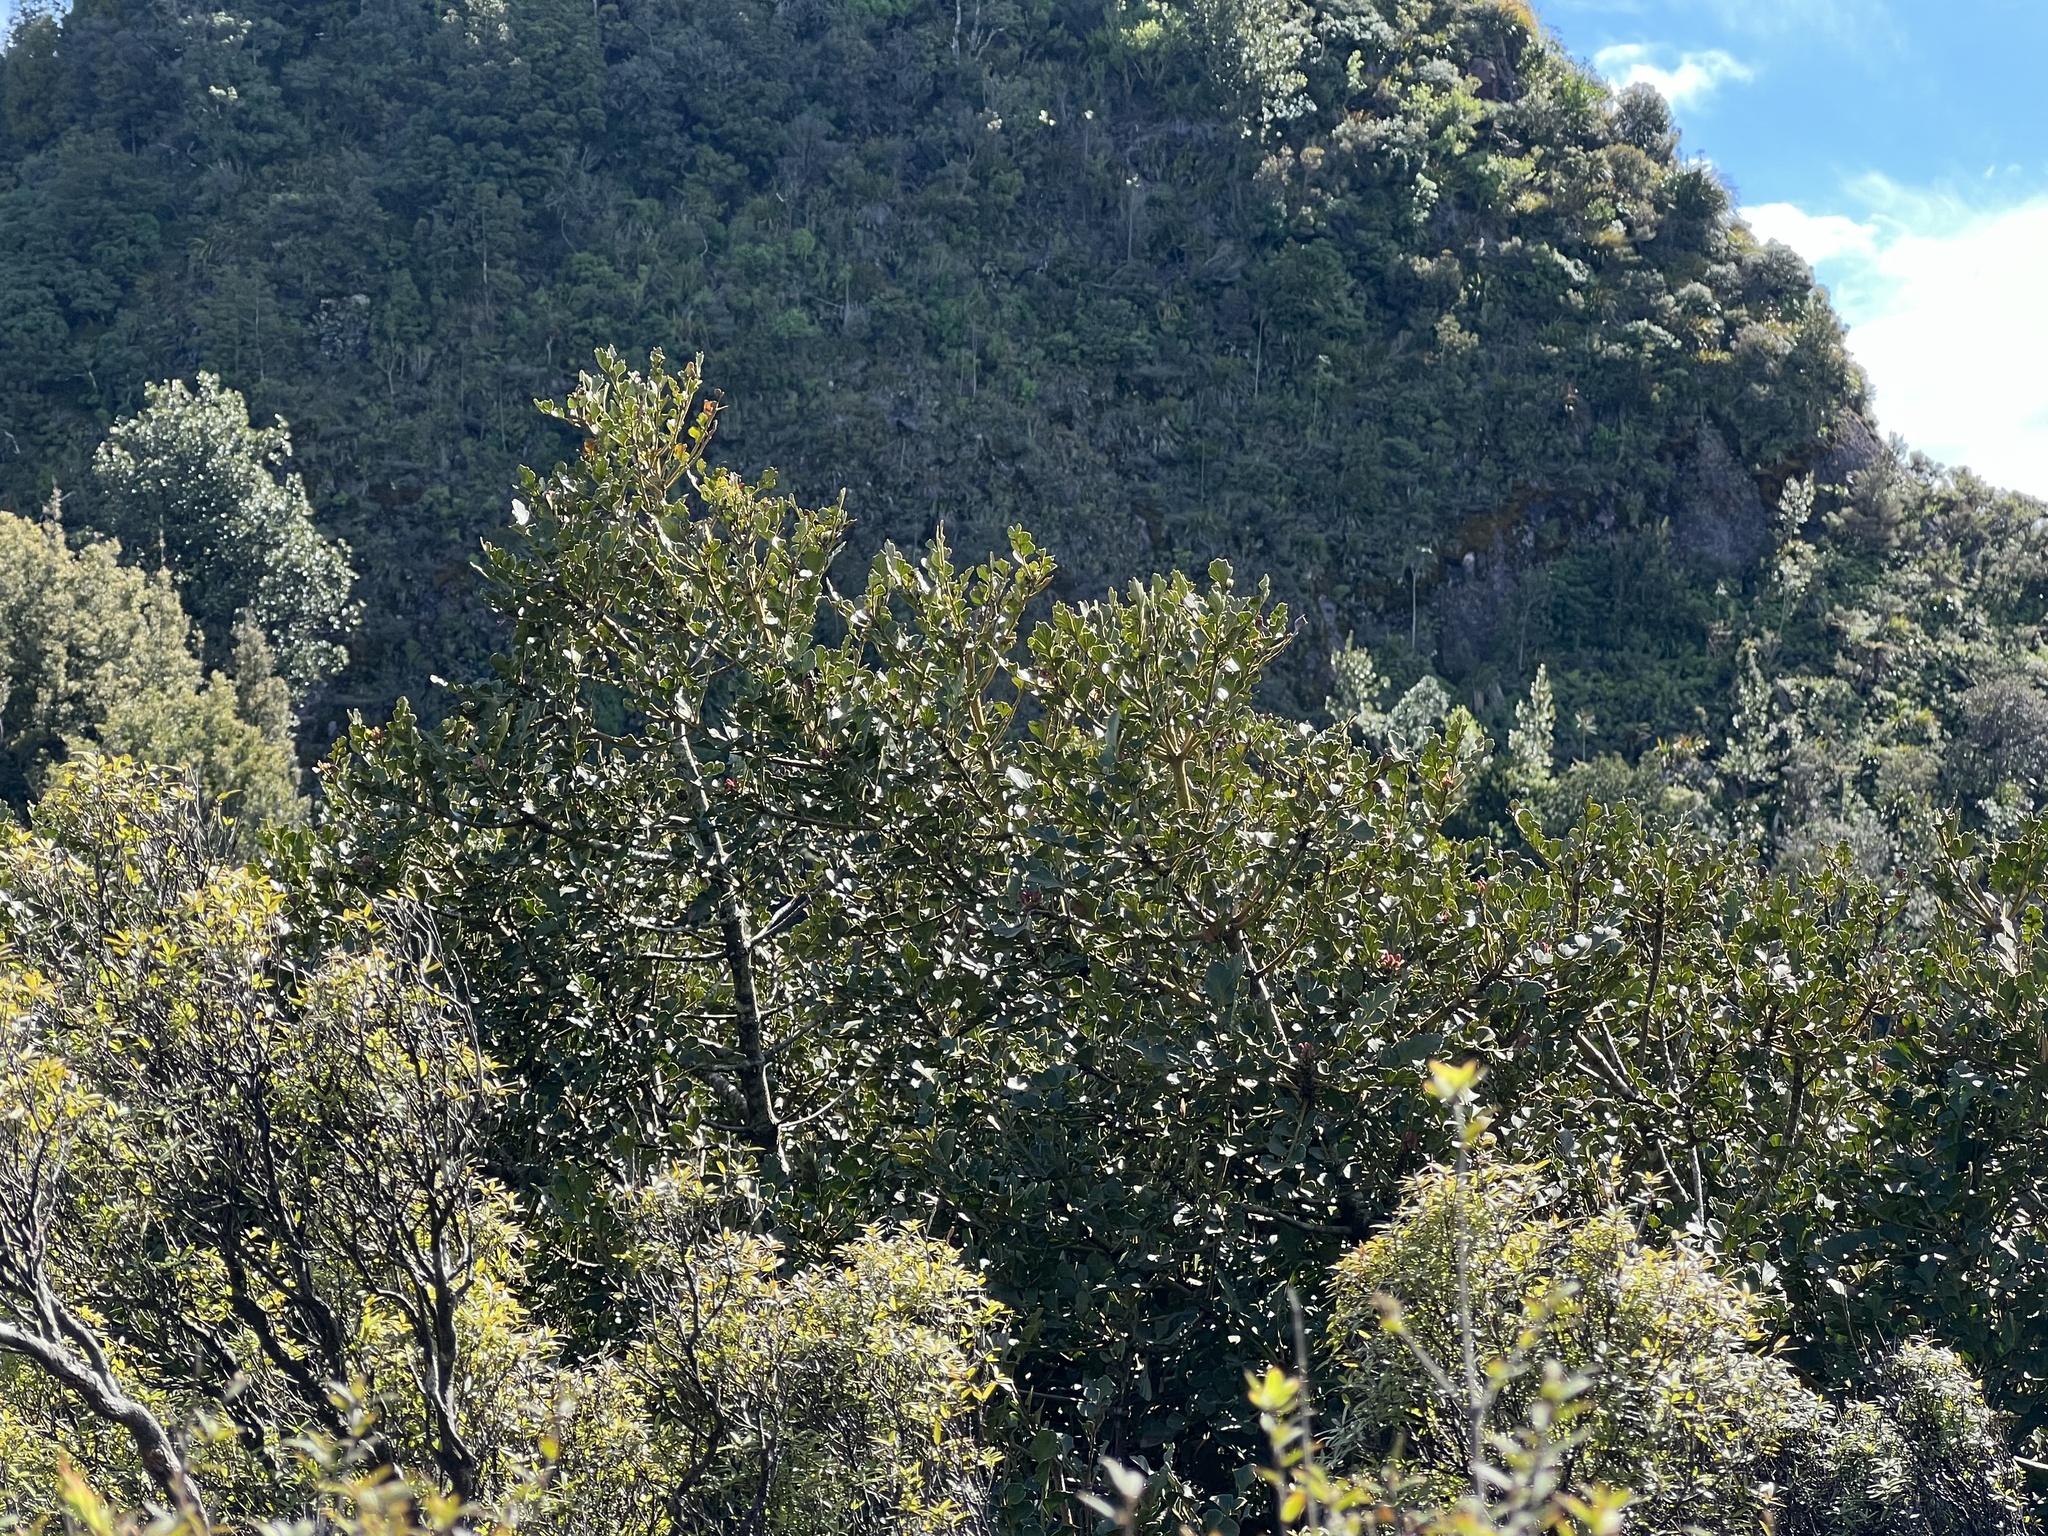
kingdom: Plantae
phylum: Tracheophyta
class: Pinopsida
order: Pinales
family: Phyllocladaceae
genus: Phyllocladus
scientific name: Phyllocladus toatoa
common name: Celery-top pine
